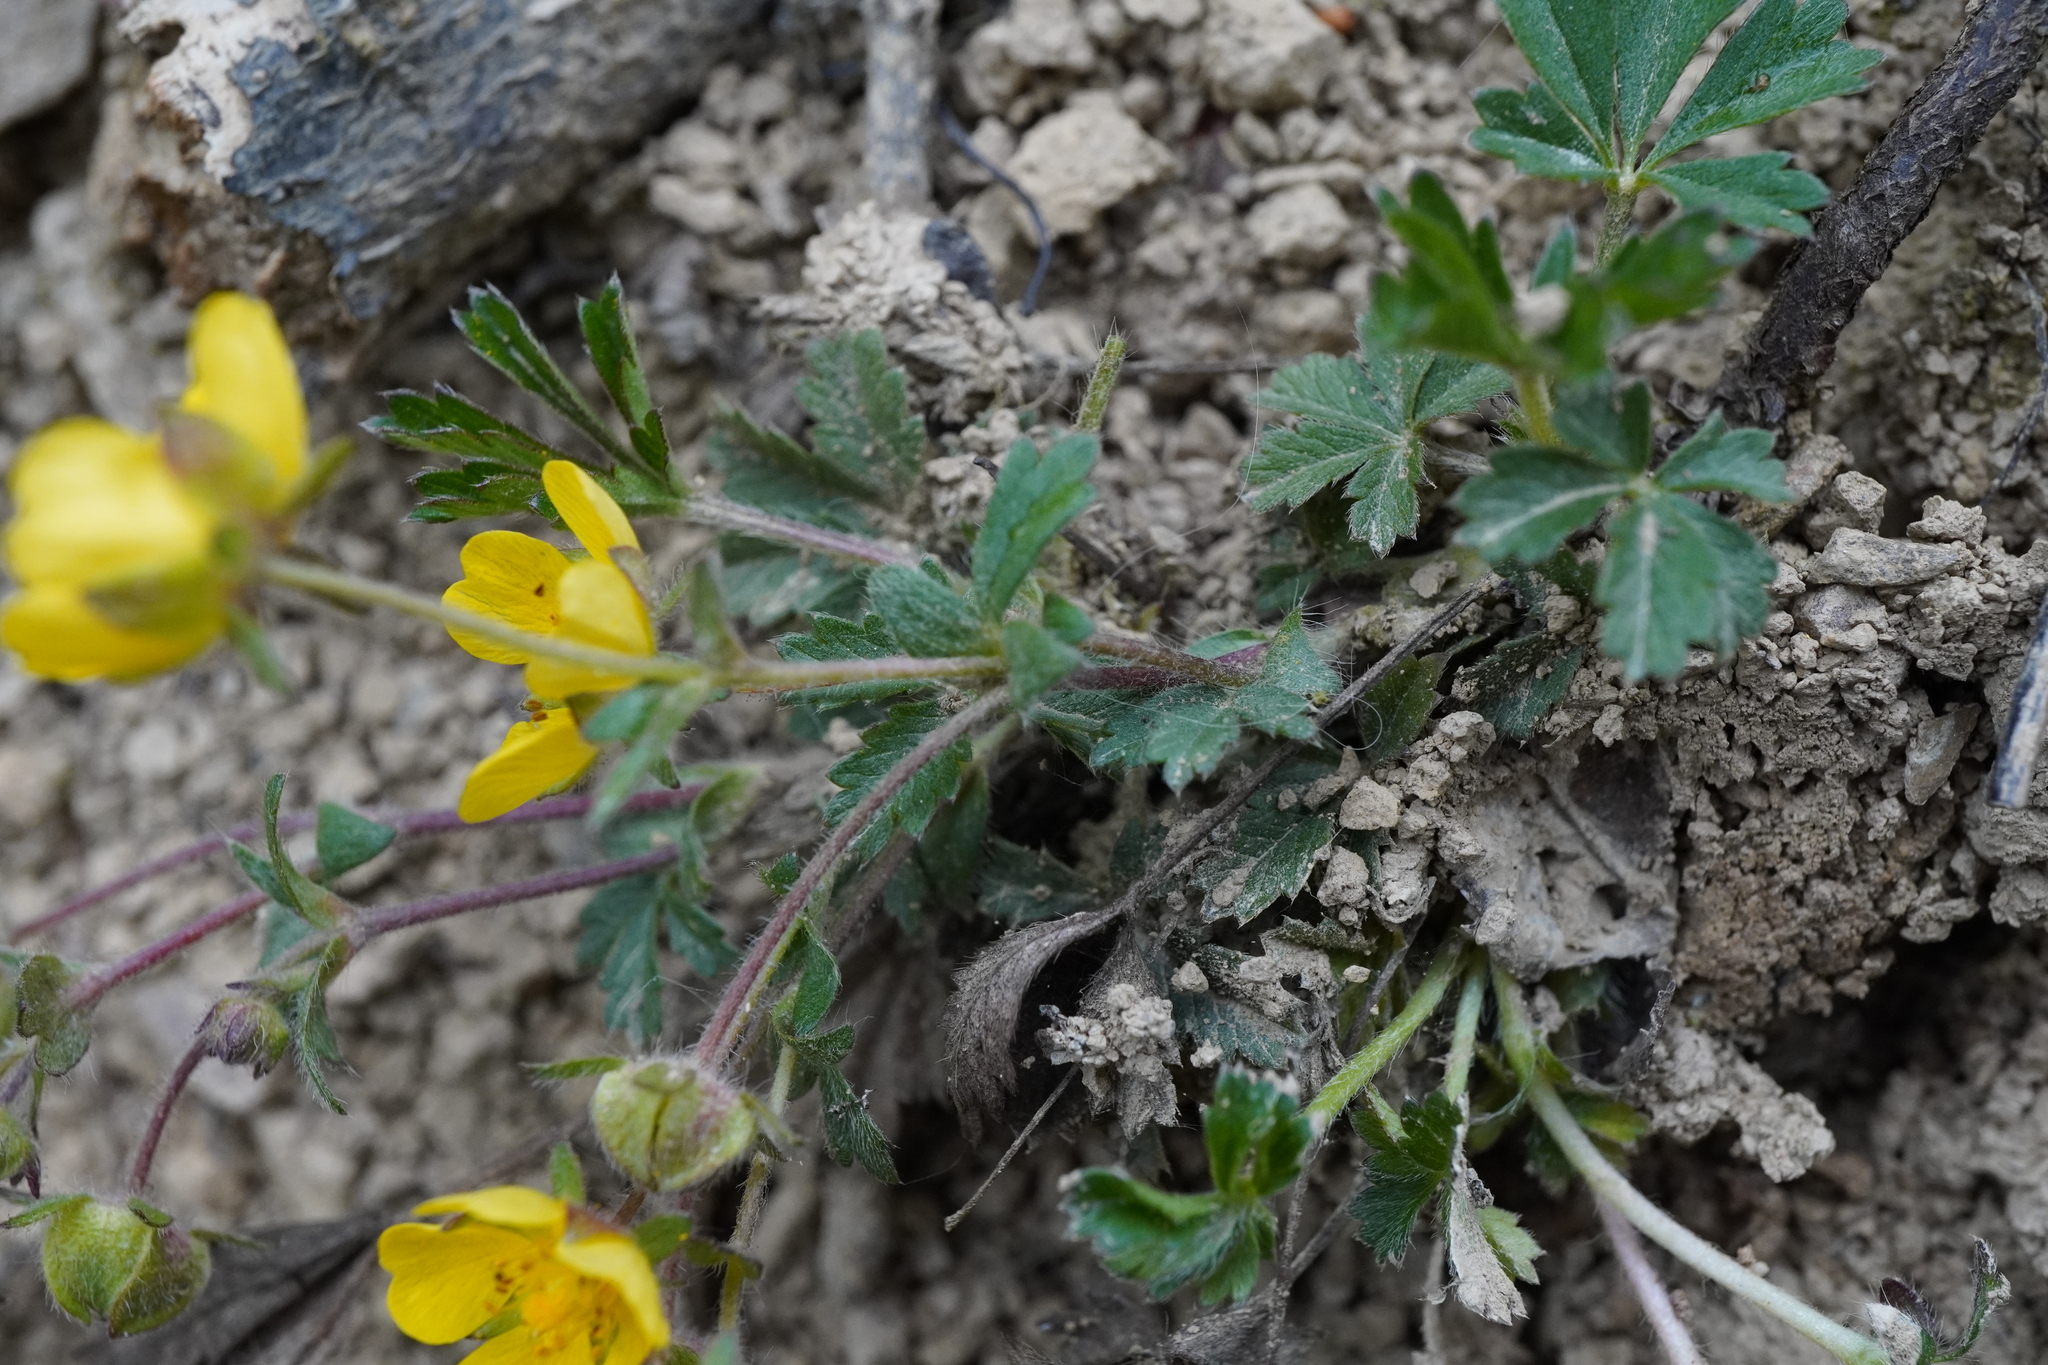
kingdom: Plantae
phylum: Tracheophyta
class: Magnoliopsida
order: Rosales
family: Rosaceae
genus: Potentilla
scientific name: Potentilla verna
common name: Spring cinquefoil
